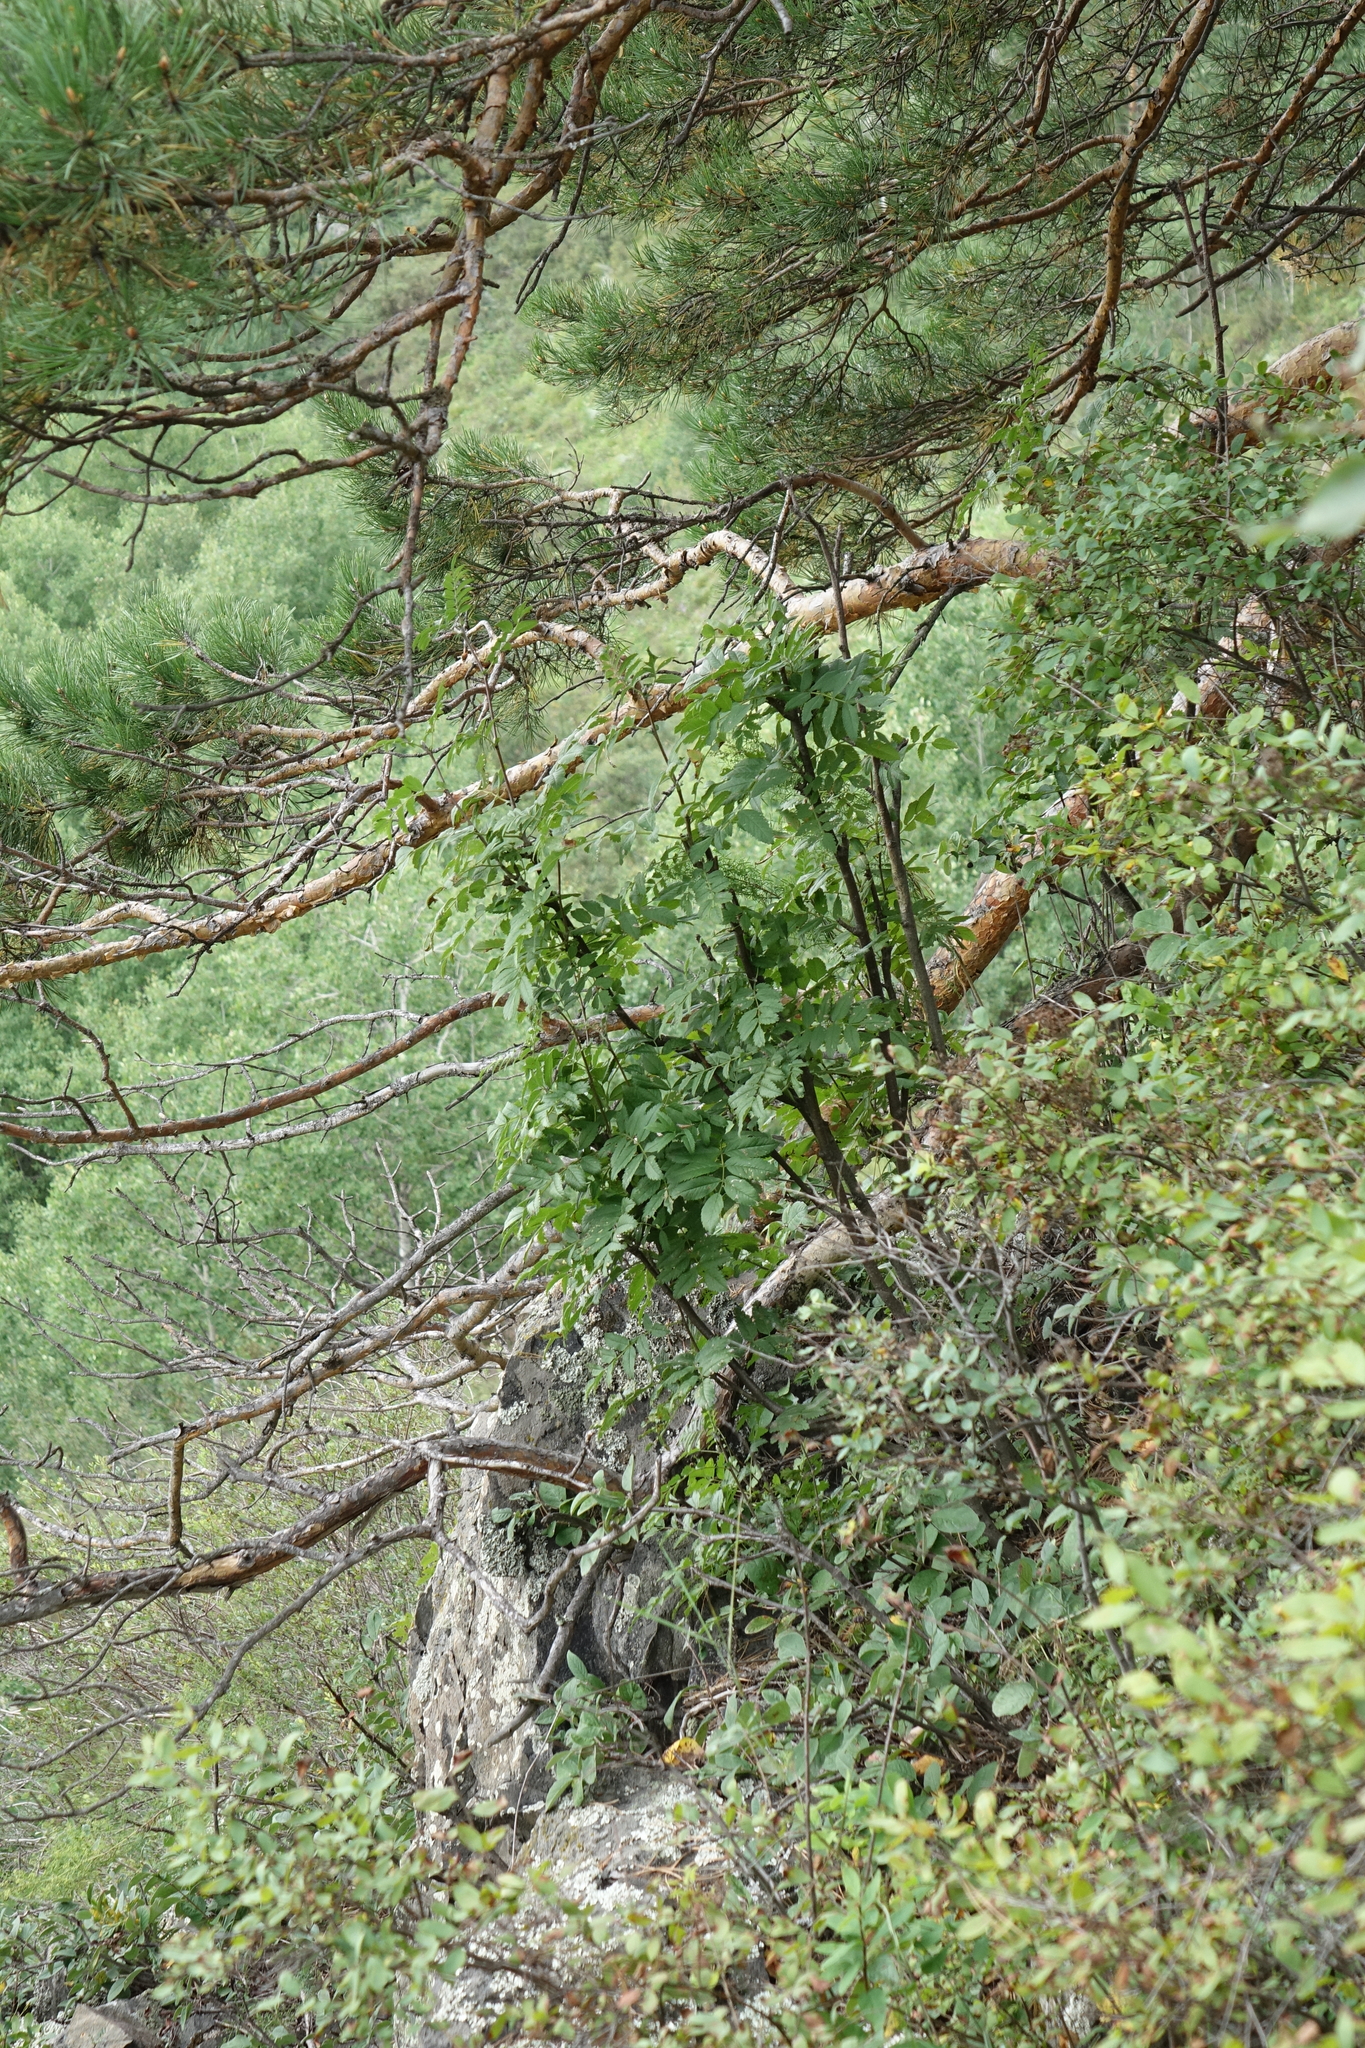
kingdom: Plantae
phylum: Tracheophyta
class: Magnoliopsida
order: Rosales
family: Rosaceae
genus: Sorbus
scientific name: Sorbus aucuparia
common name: Rowan
